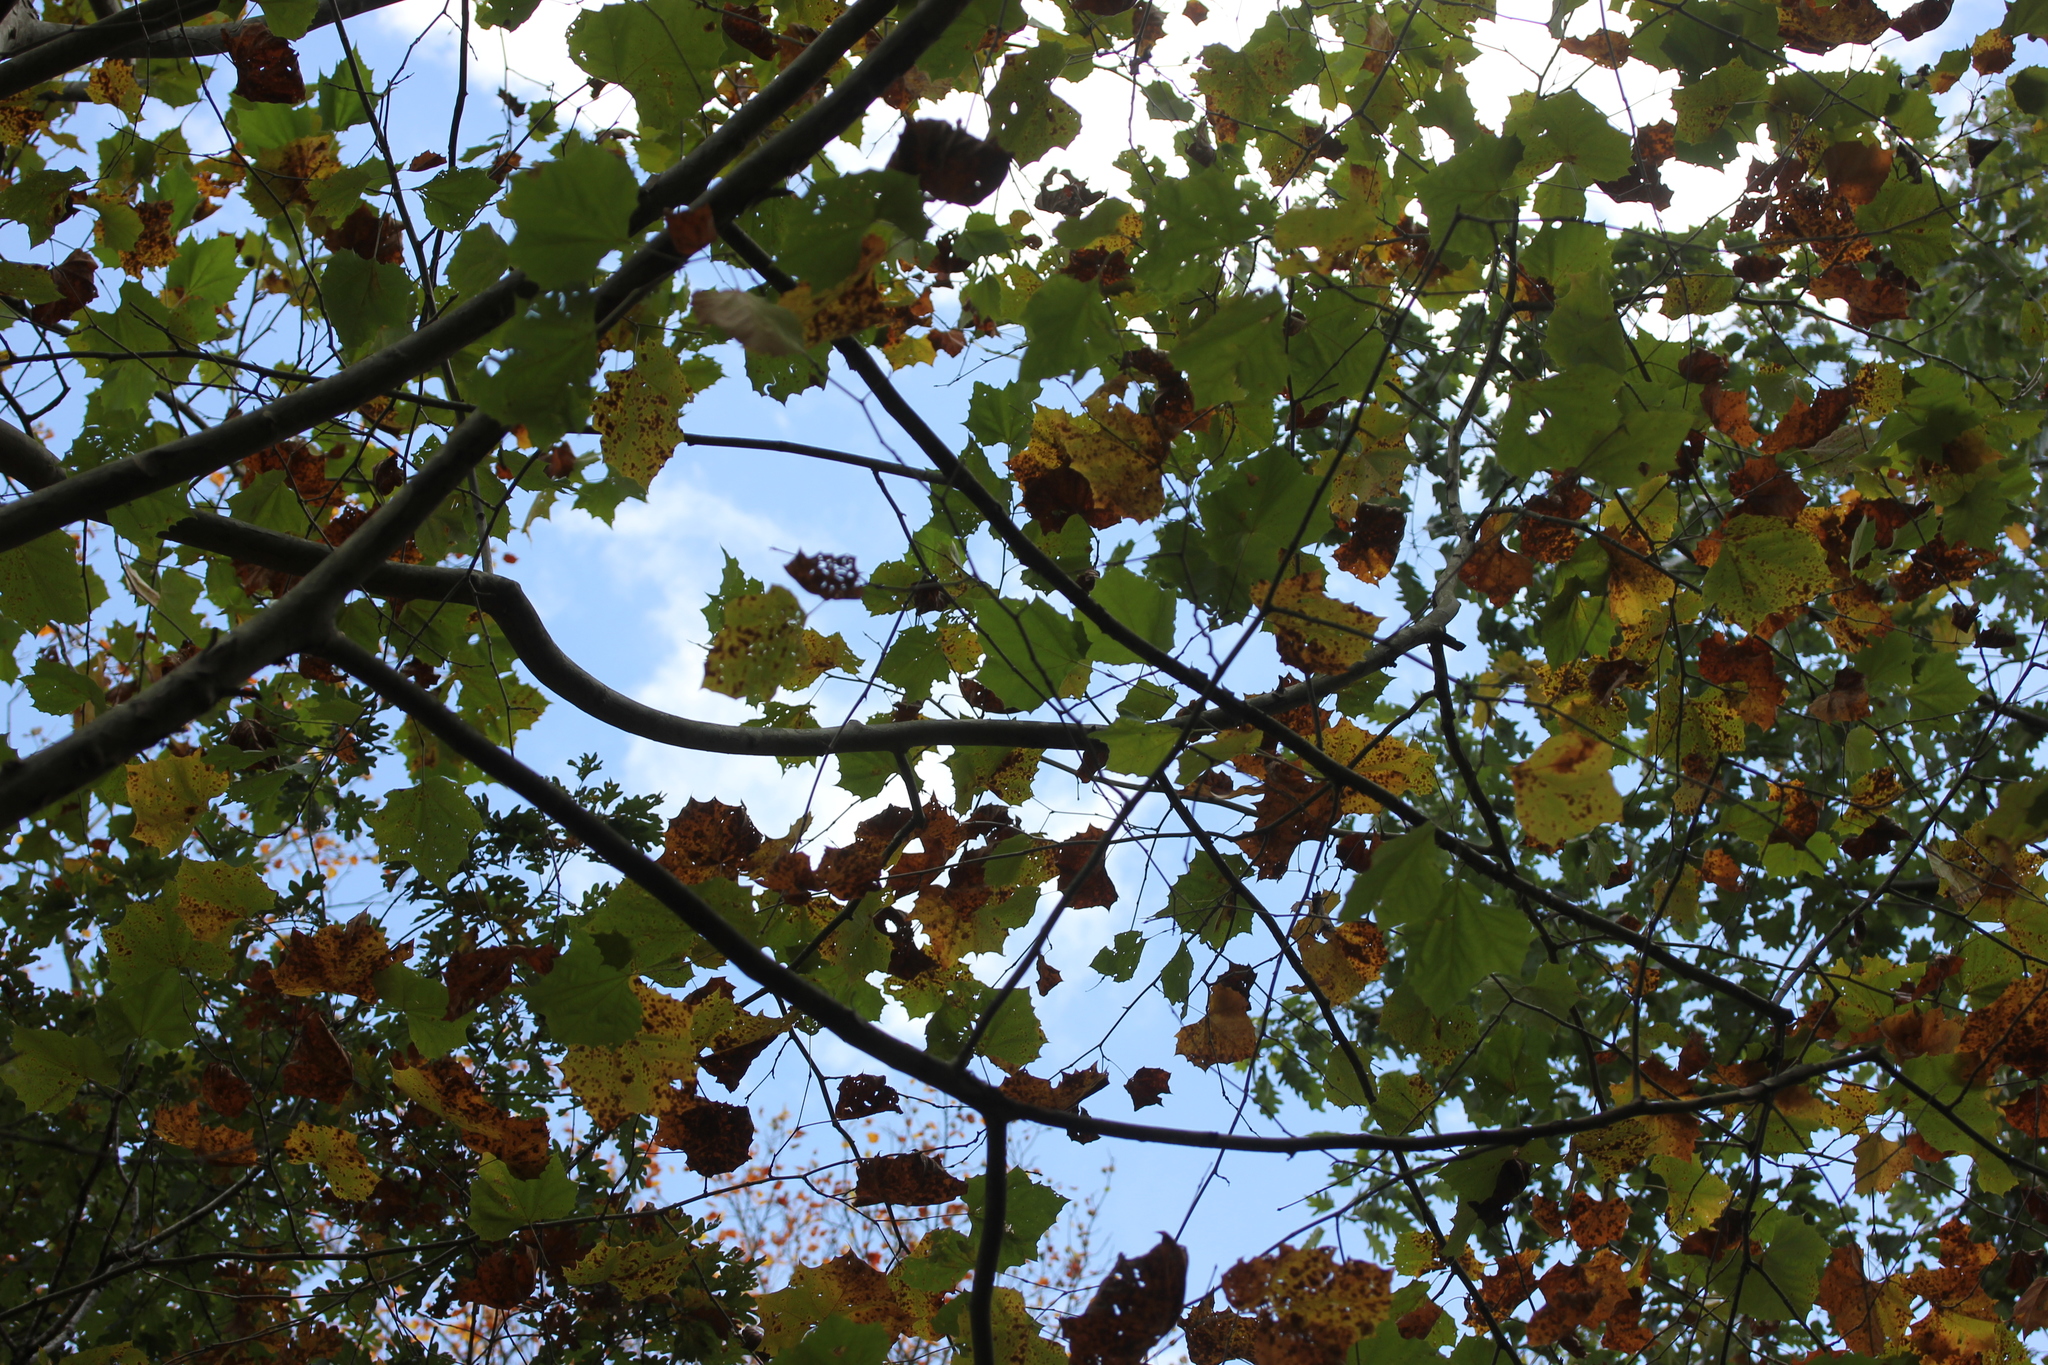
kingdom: Plantae
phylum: Tracheophyta
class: Magnoliopsida
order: Proteales
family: Platanaceae
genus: Platanus
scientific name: Platanus occidentalis
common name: American sycamore
